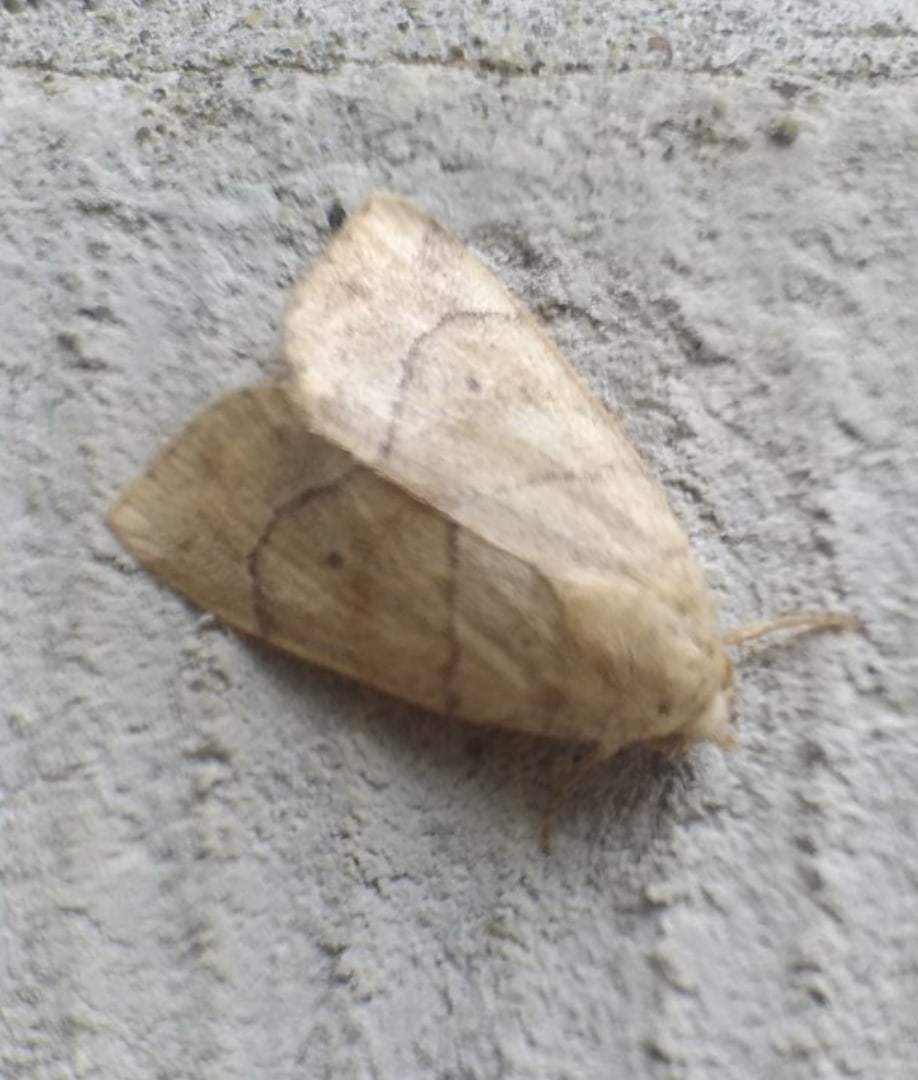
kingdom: Animalia
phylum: Arthropoda
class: Insecta
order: Lepidoptera
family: Noctuidae
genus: Cosmia
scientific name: Cosmia trapezina
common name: Dun-bar
